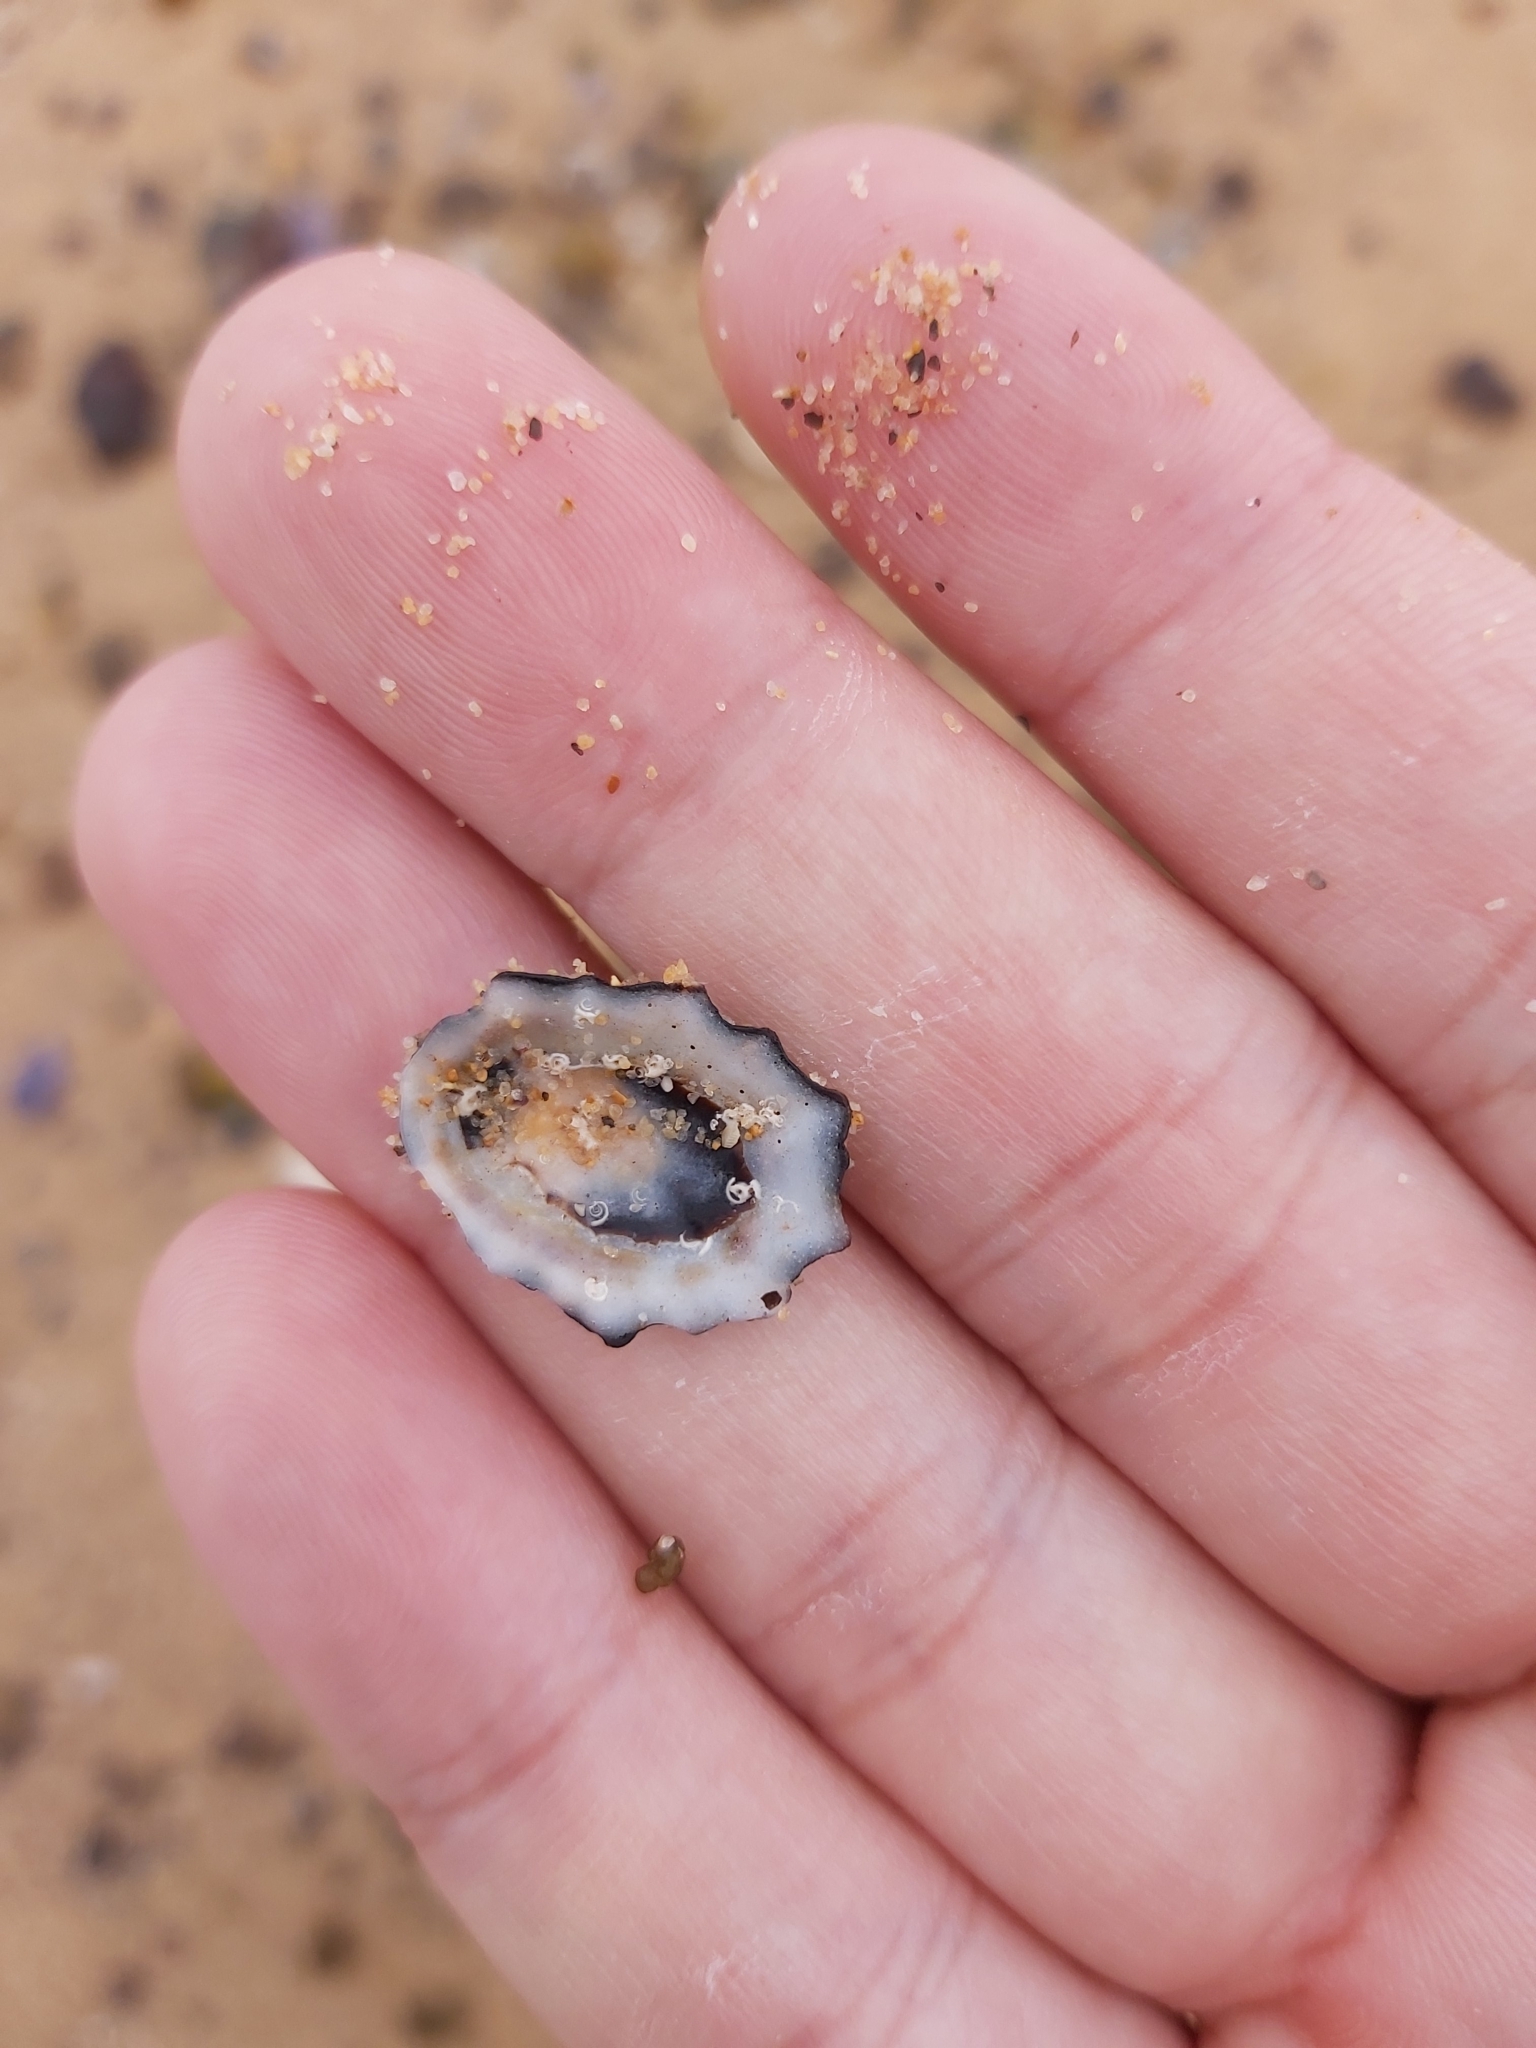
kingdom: Animalia
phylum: Mollusca
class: Gastropoda
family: Lottiidae
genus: Patelloida
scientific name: Patelloida alticostata
